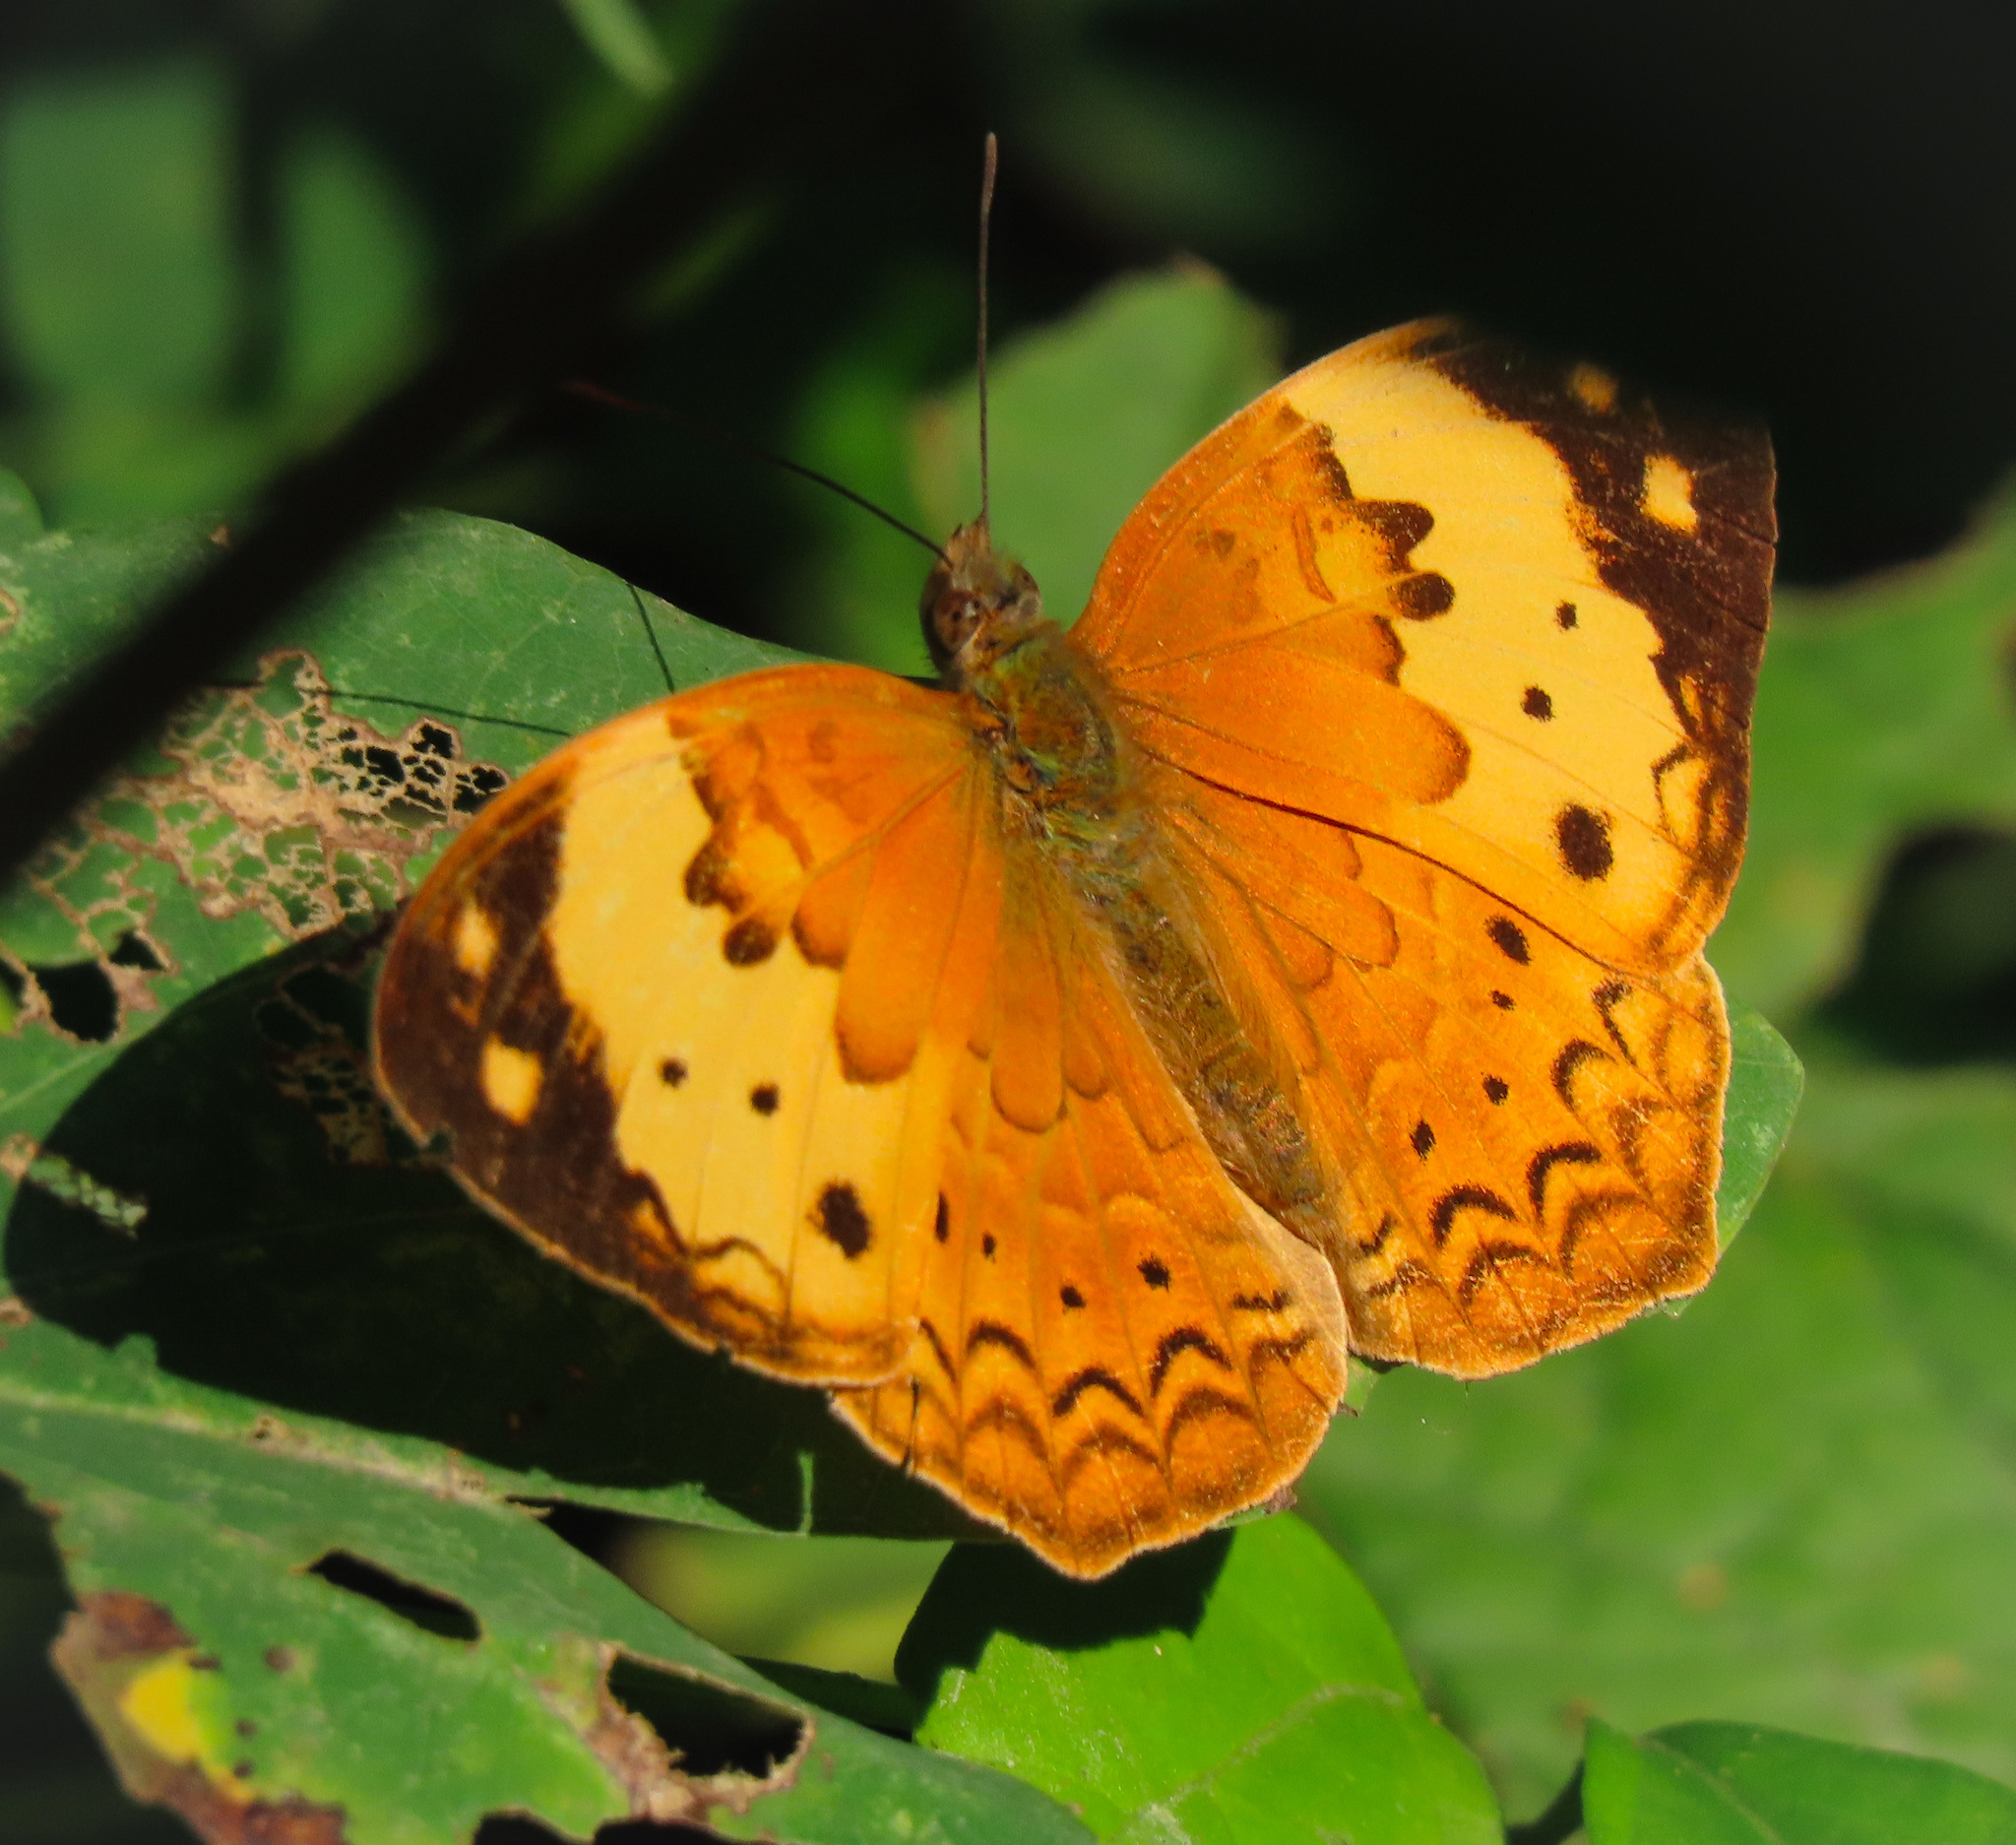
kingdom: Animalia
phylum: Arthropoda
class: Insecta
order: Lepidoptera
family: Nymphalidae
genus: Cupha
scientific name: Cupha erymanthis
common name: Rustic
